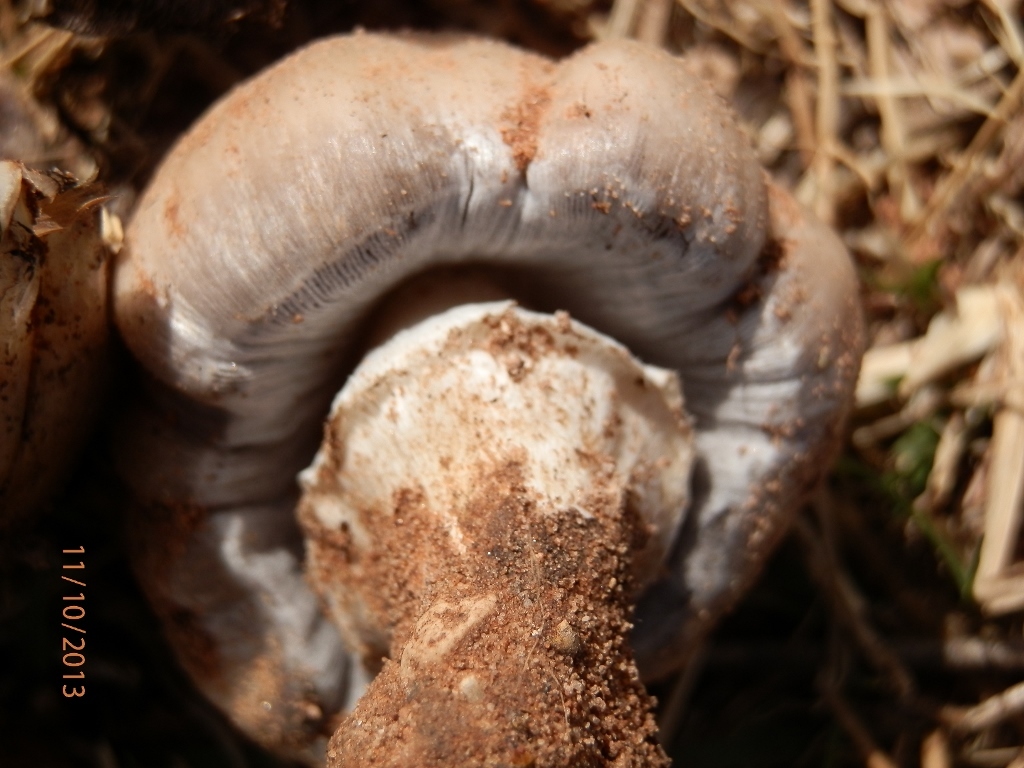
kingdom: Fungi
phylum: Basidiomycota
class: Agaricomycetes
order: Agaricales
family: Psathyrellaceae
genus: Coprinopsis
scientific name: Coprinopsis atramentaria
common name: Common ink-cap
